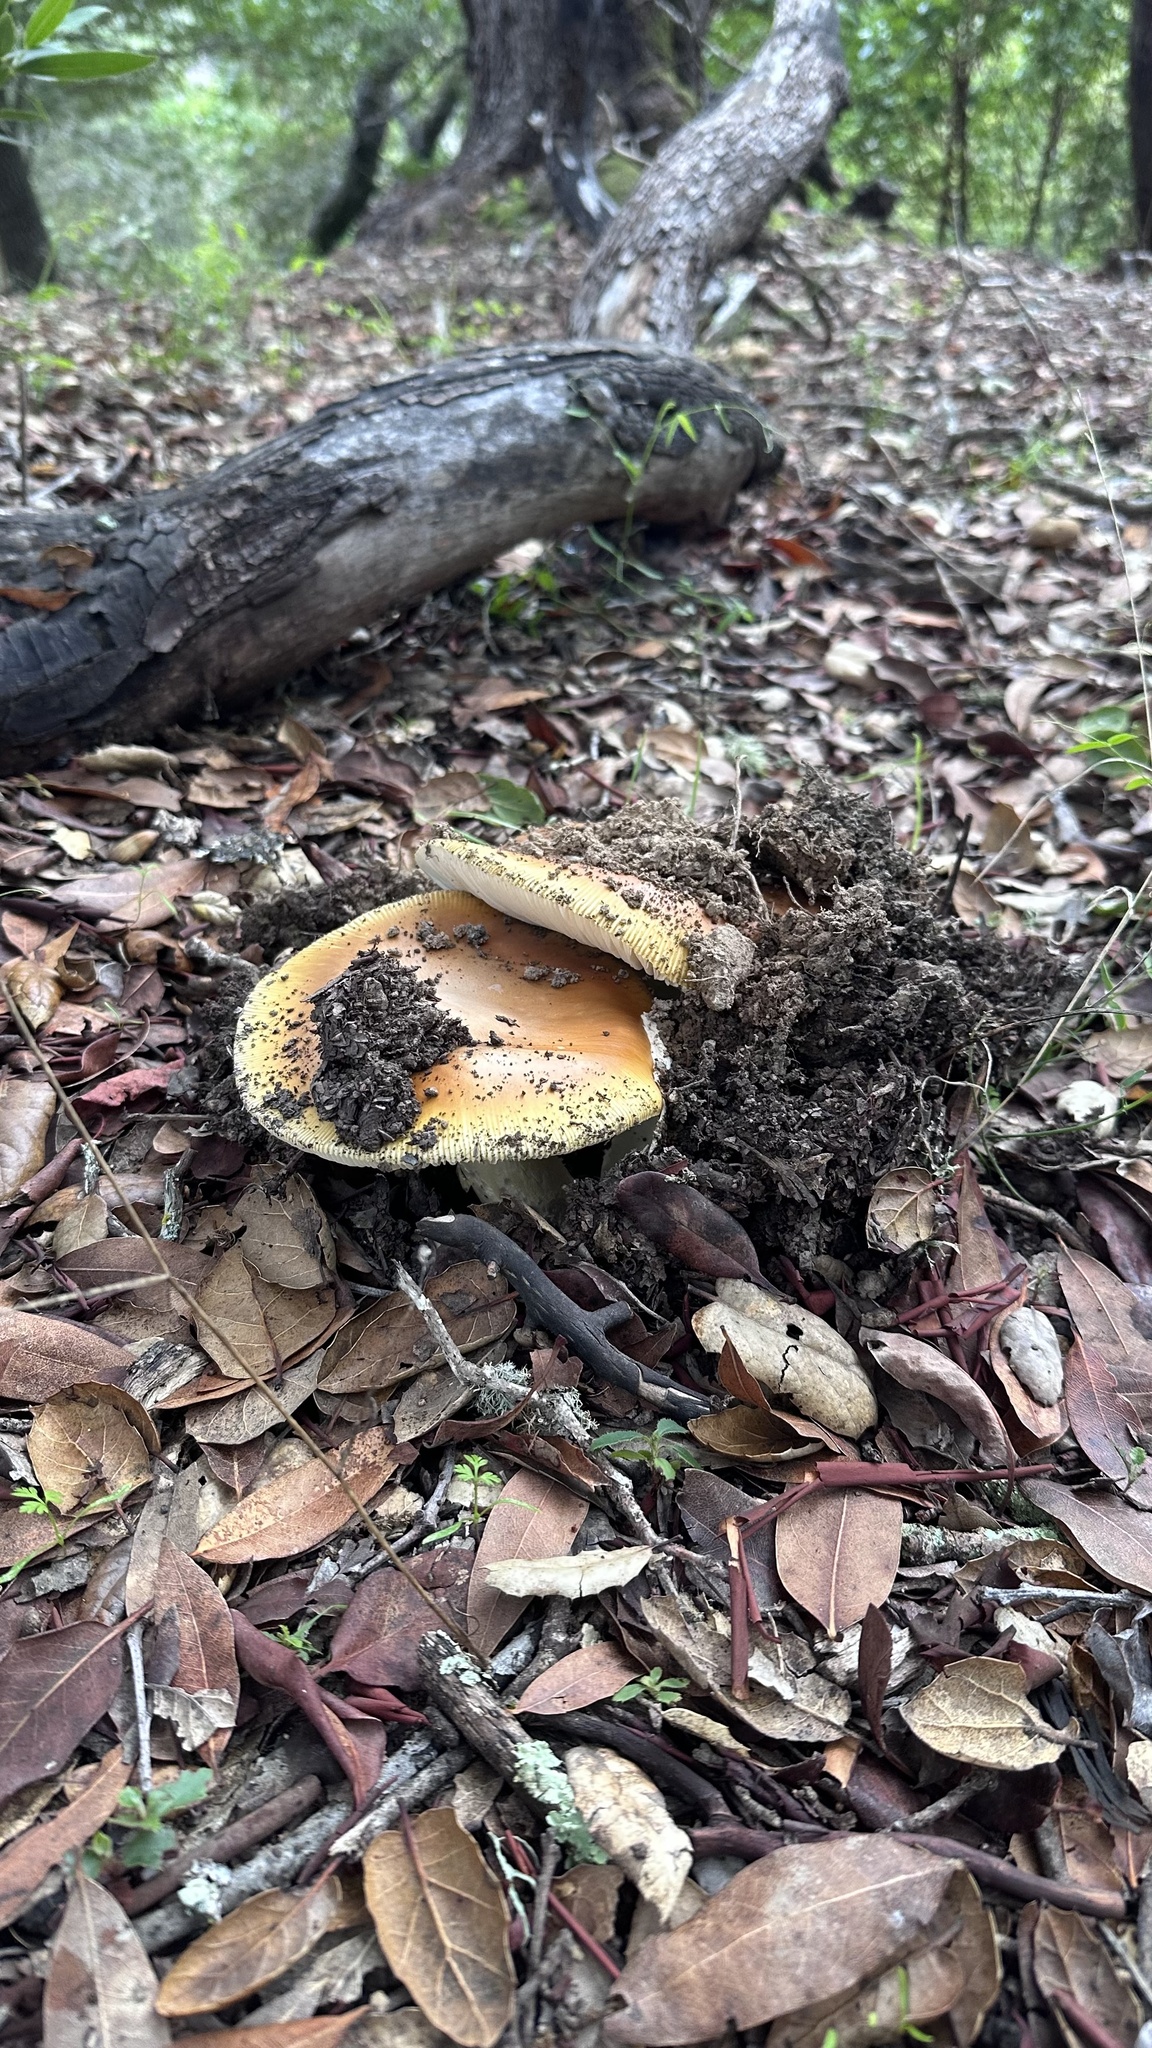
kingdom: Fungi
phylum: Basidiomycota
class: Agaricomycetes
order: Agaricales
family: Amanitaceae
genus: Amanita
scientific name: Amanita calyptroderma
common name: Coccora
